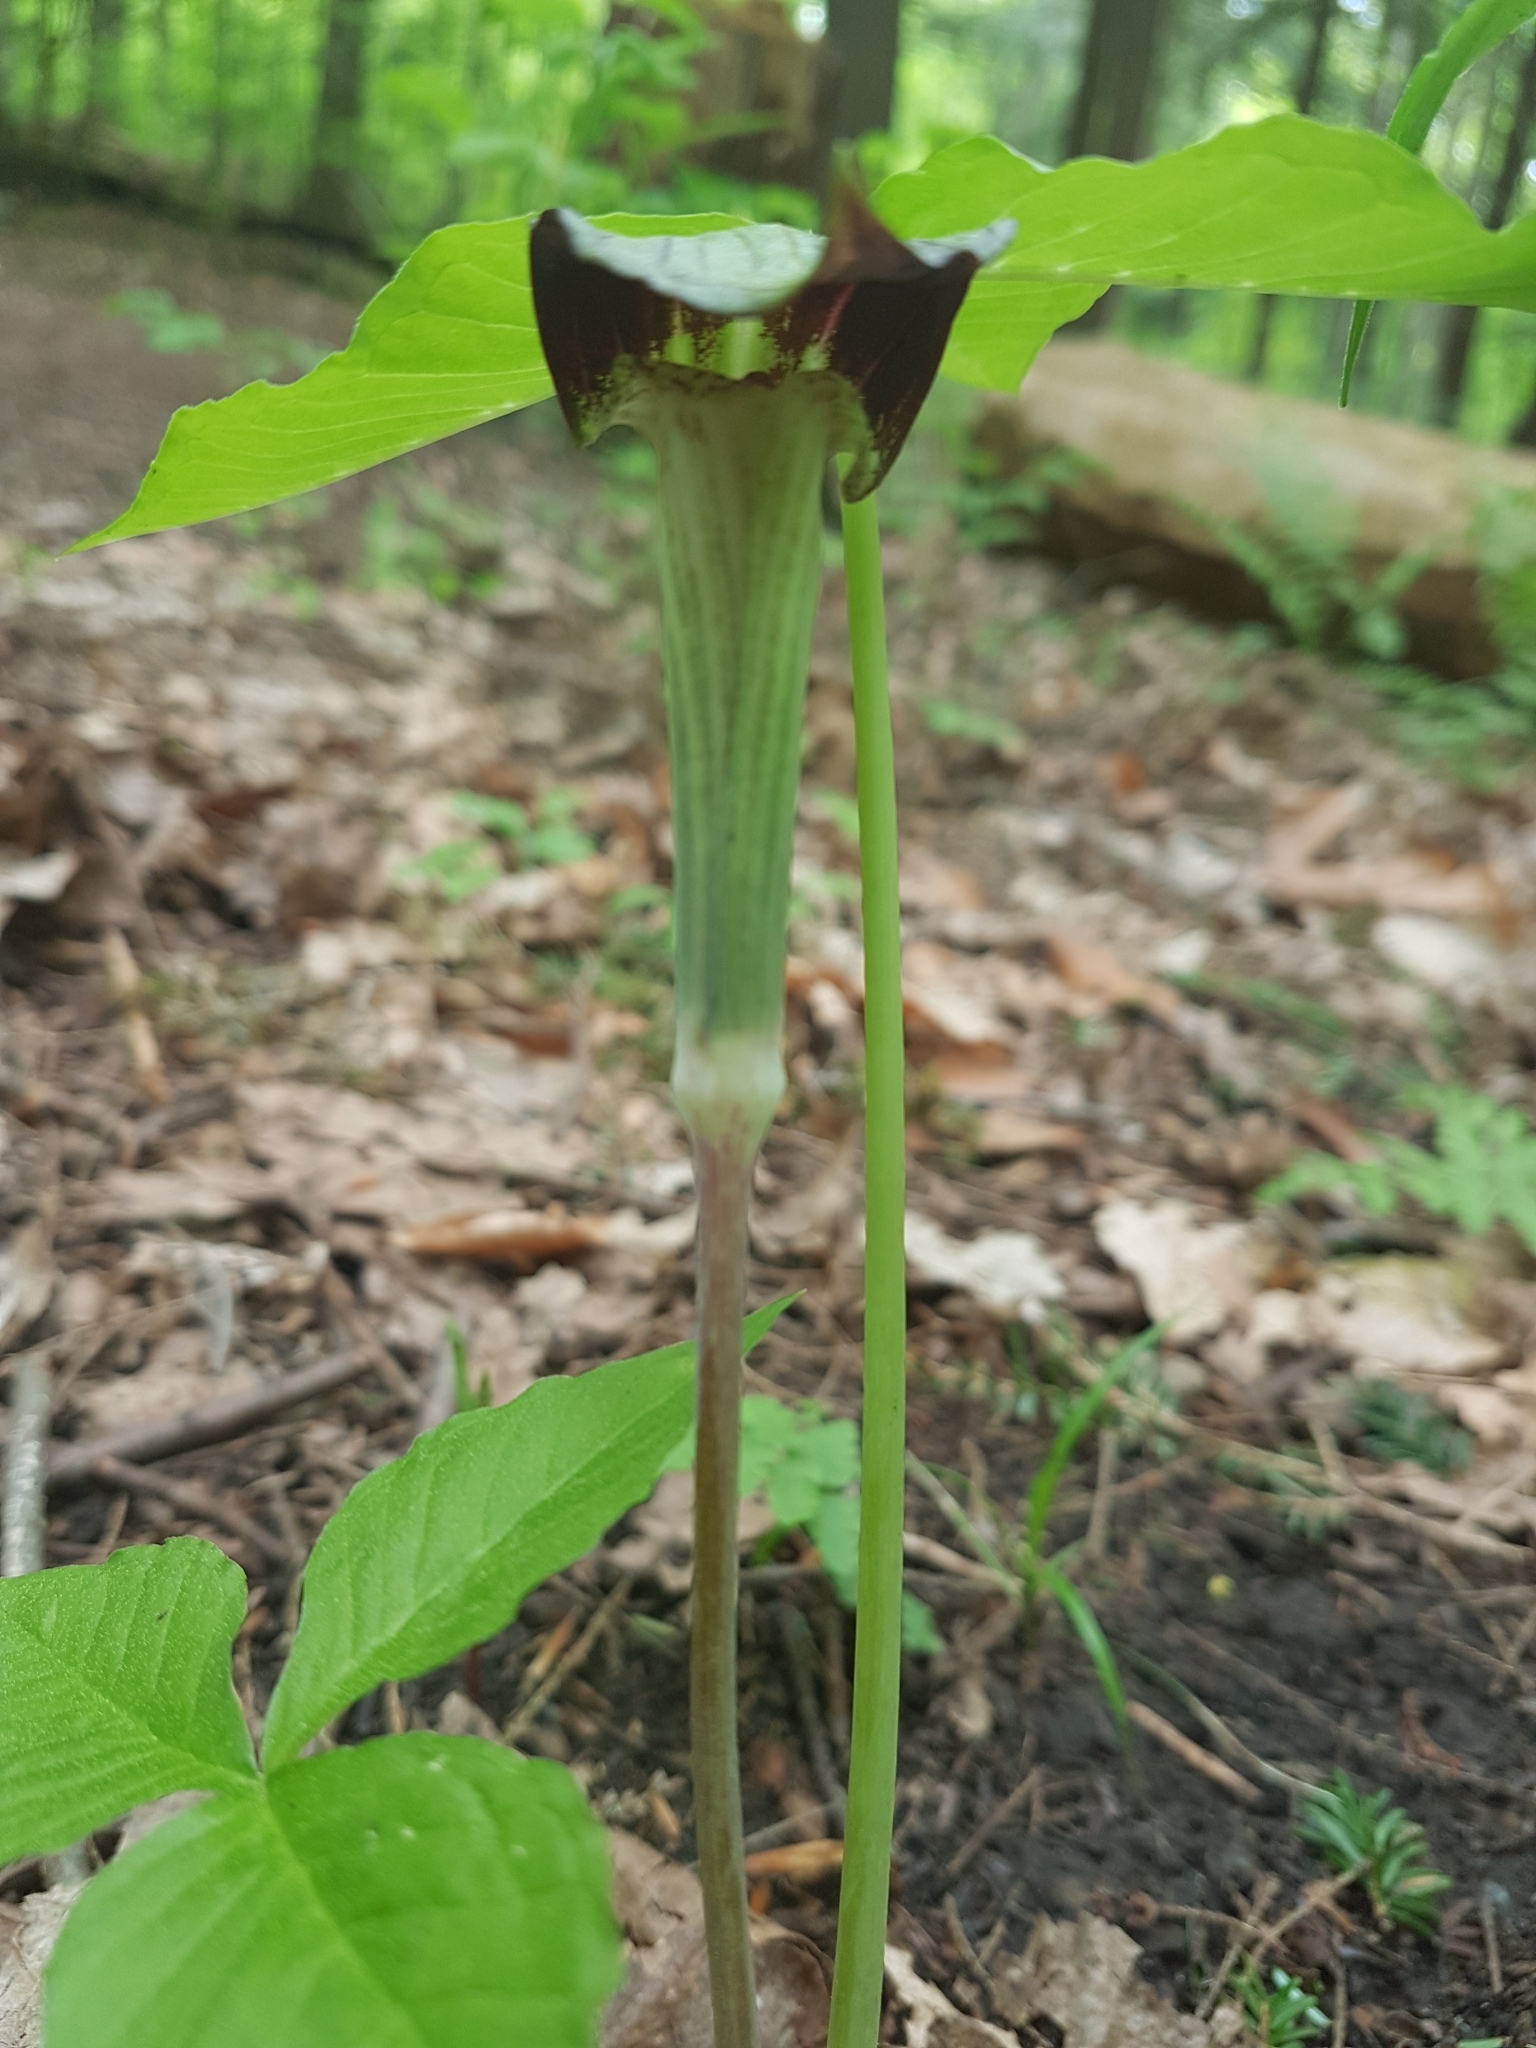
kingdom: Plantae
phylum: Tracheophyta
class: Liliopsida
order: Alismatales
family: Araceae
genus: Arisaema
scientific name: Arisaema triphyllum
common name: Jack-in-the-pulpit
